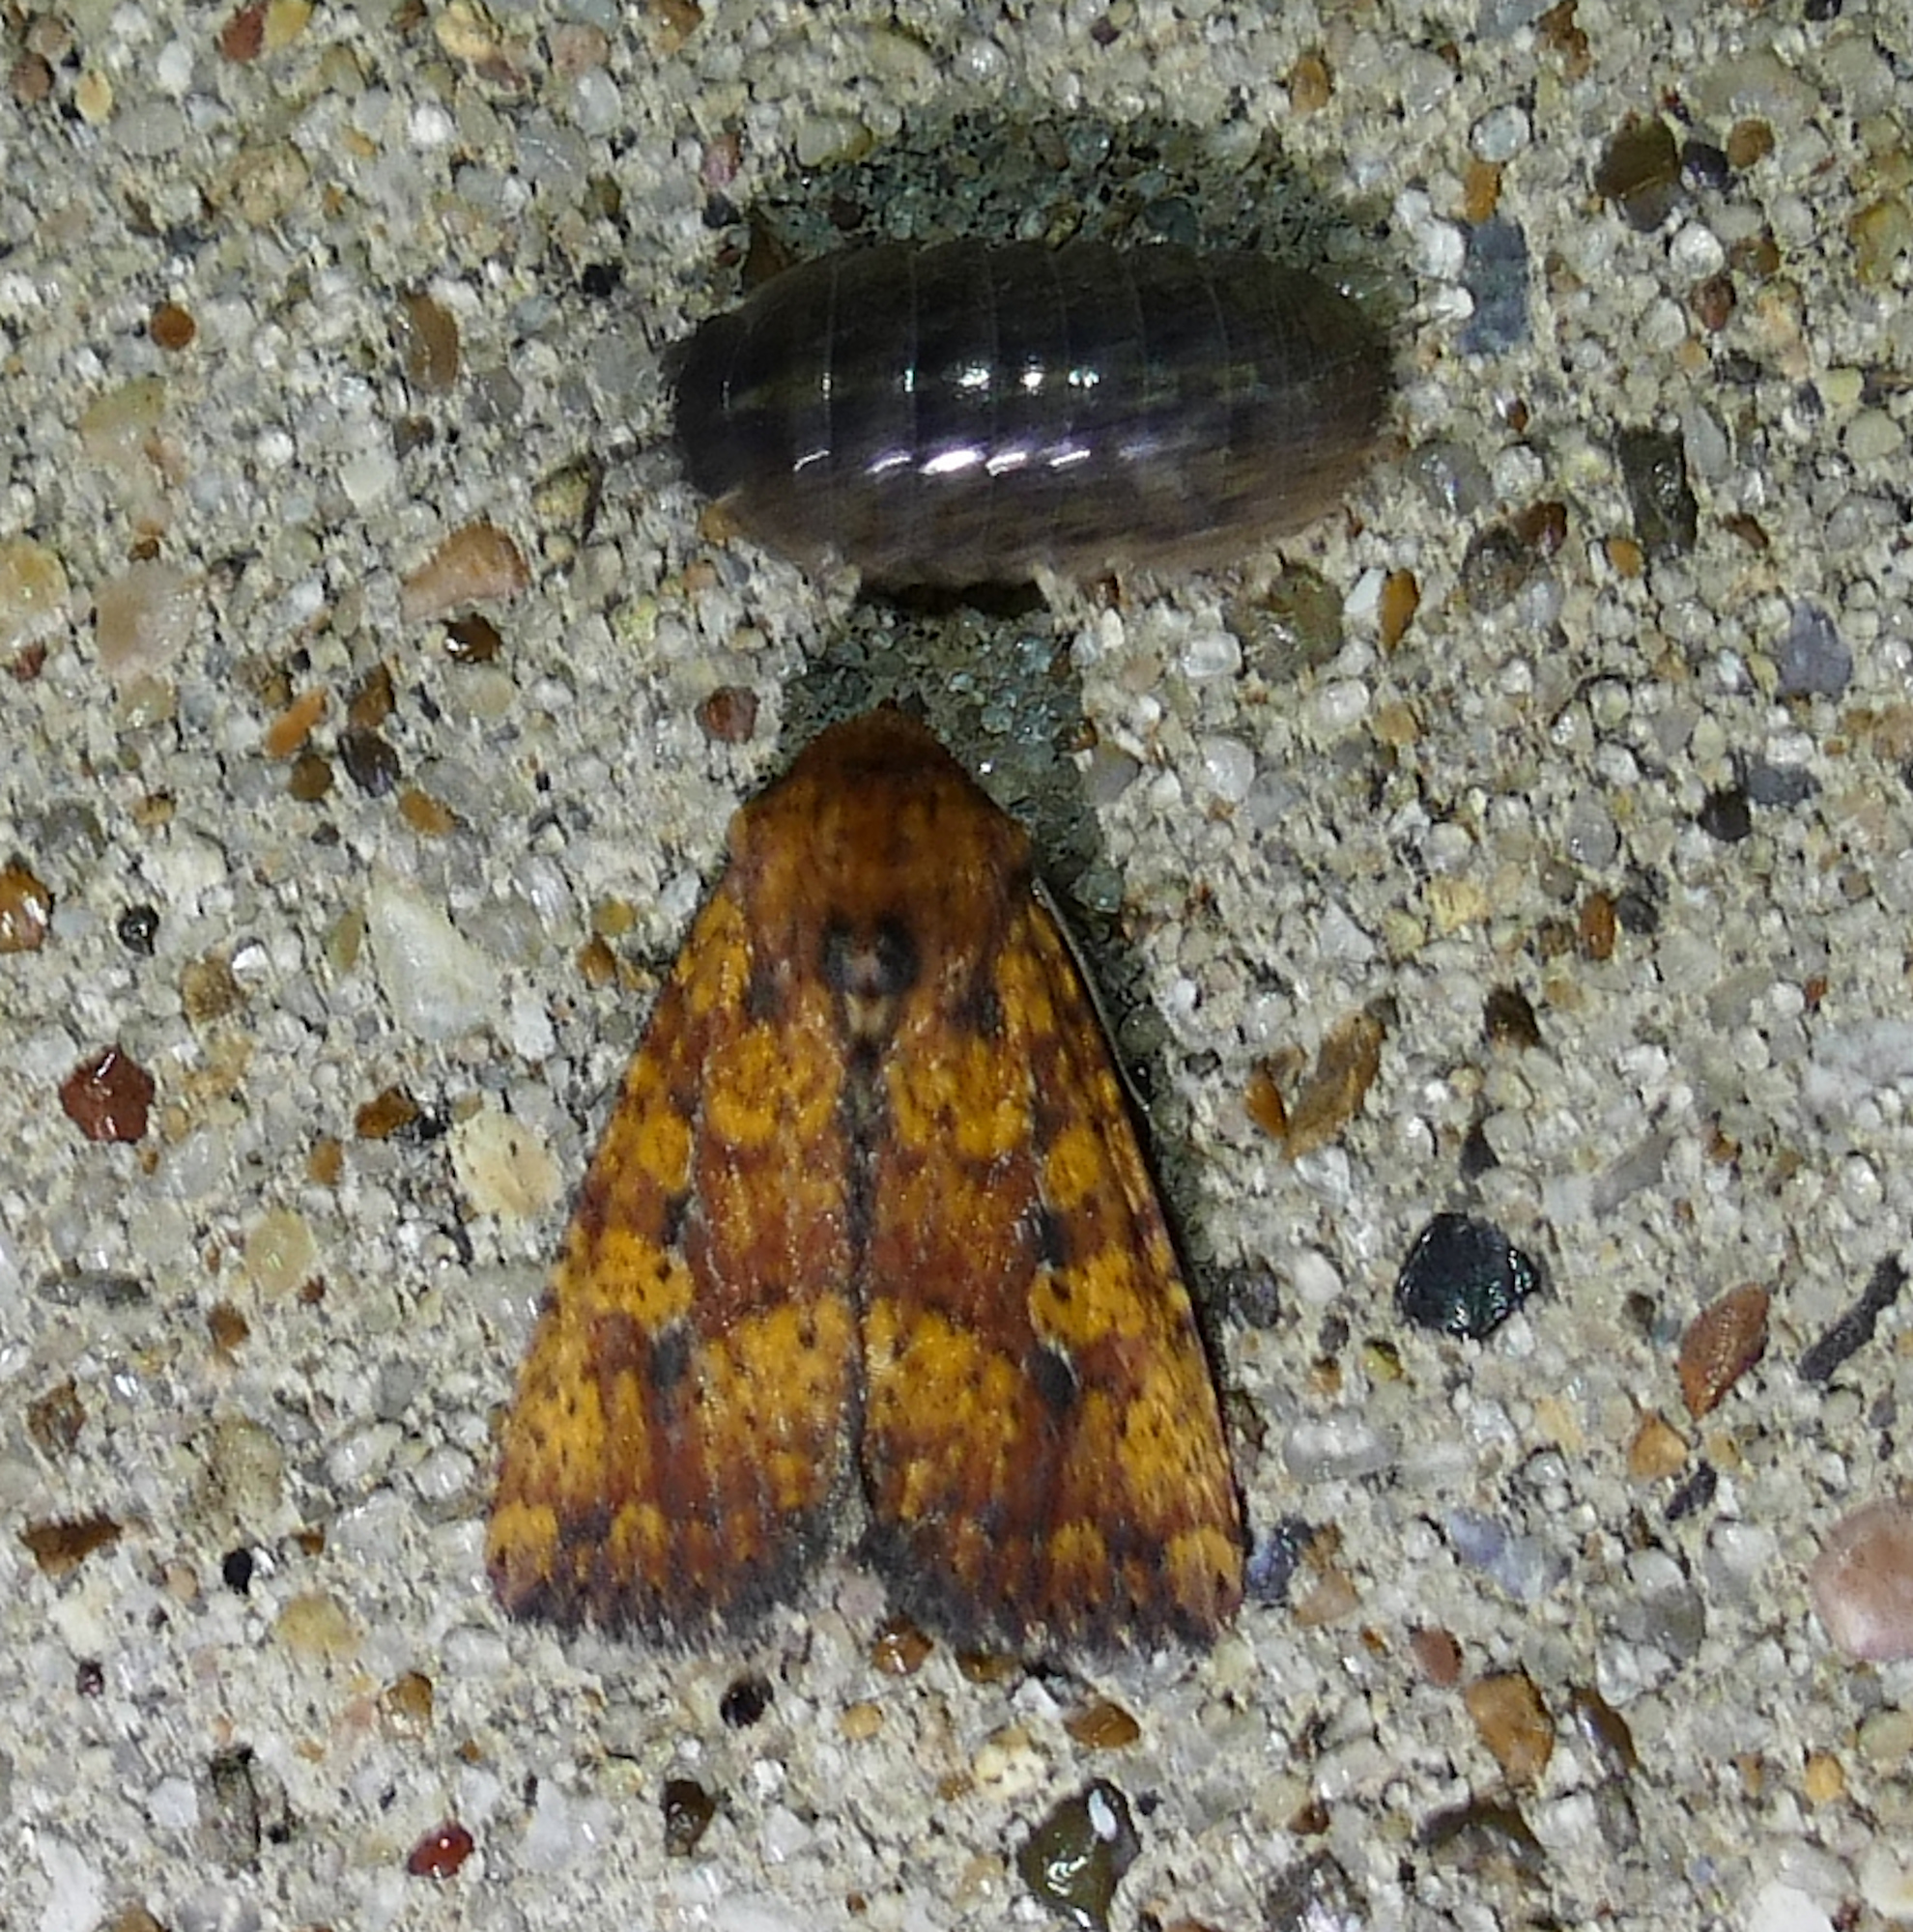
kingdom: Animalia
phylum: Arthropoda
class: Insecta
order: Lepidoptera
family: Noctuidae
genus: Perigea
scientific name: Perigea xanthioides
